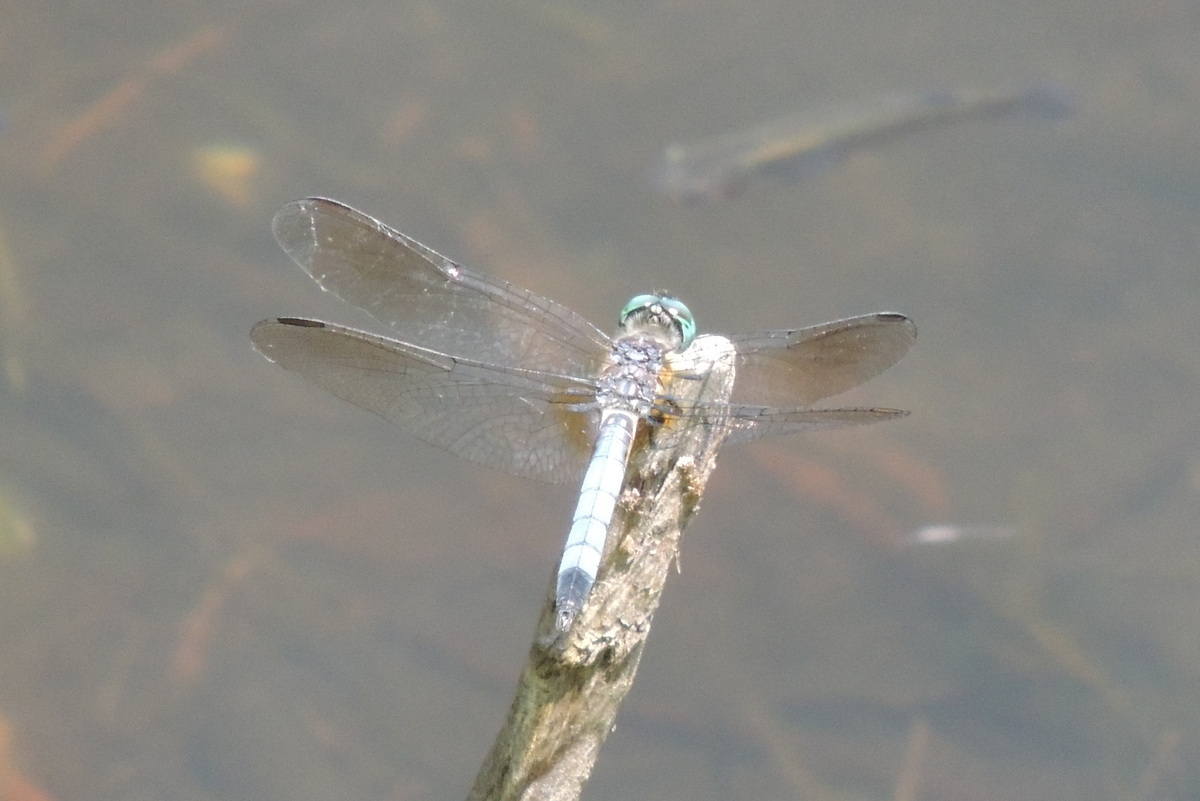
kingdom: Animalia
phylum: Arthropoda
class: Insecta
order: Odonata
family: Libellulidae
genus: Pachydiplax
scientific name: Pachydiplax longipennis
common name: Blue dasher
